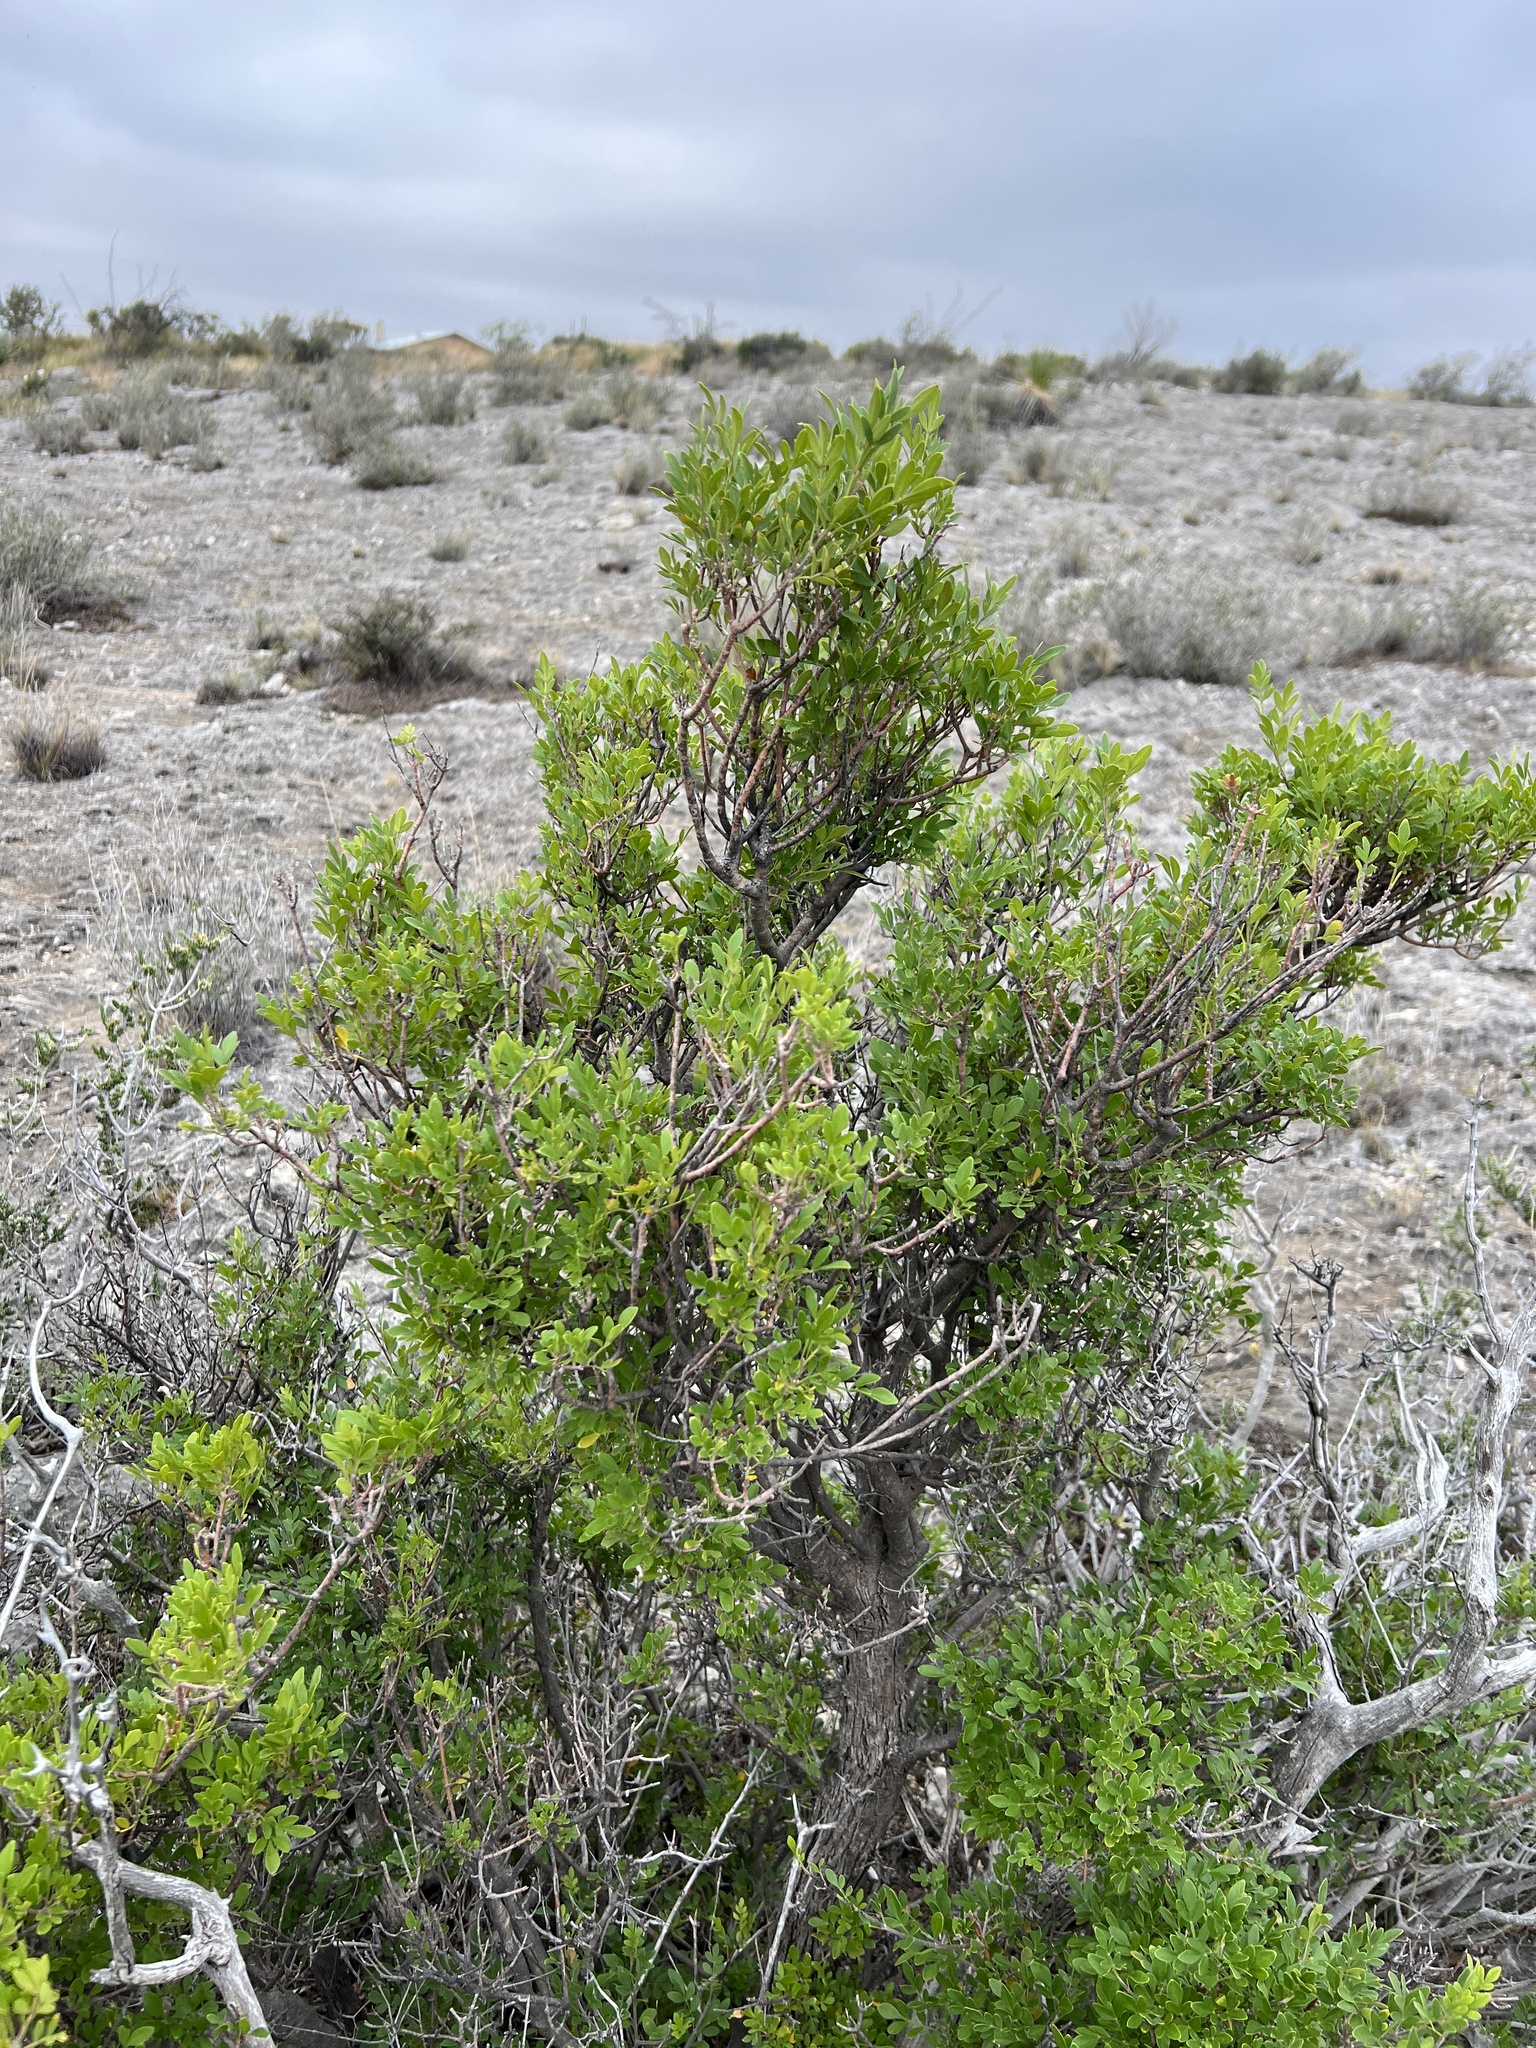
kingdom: Plantae
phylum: Tracheophyta
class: Magnoliopsida
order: Lamiales
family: Oleaceae
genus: Fraxinus
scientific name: Fraxinus greggii
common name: Gregg ash
